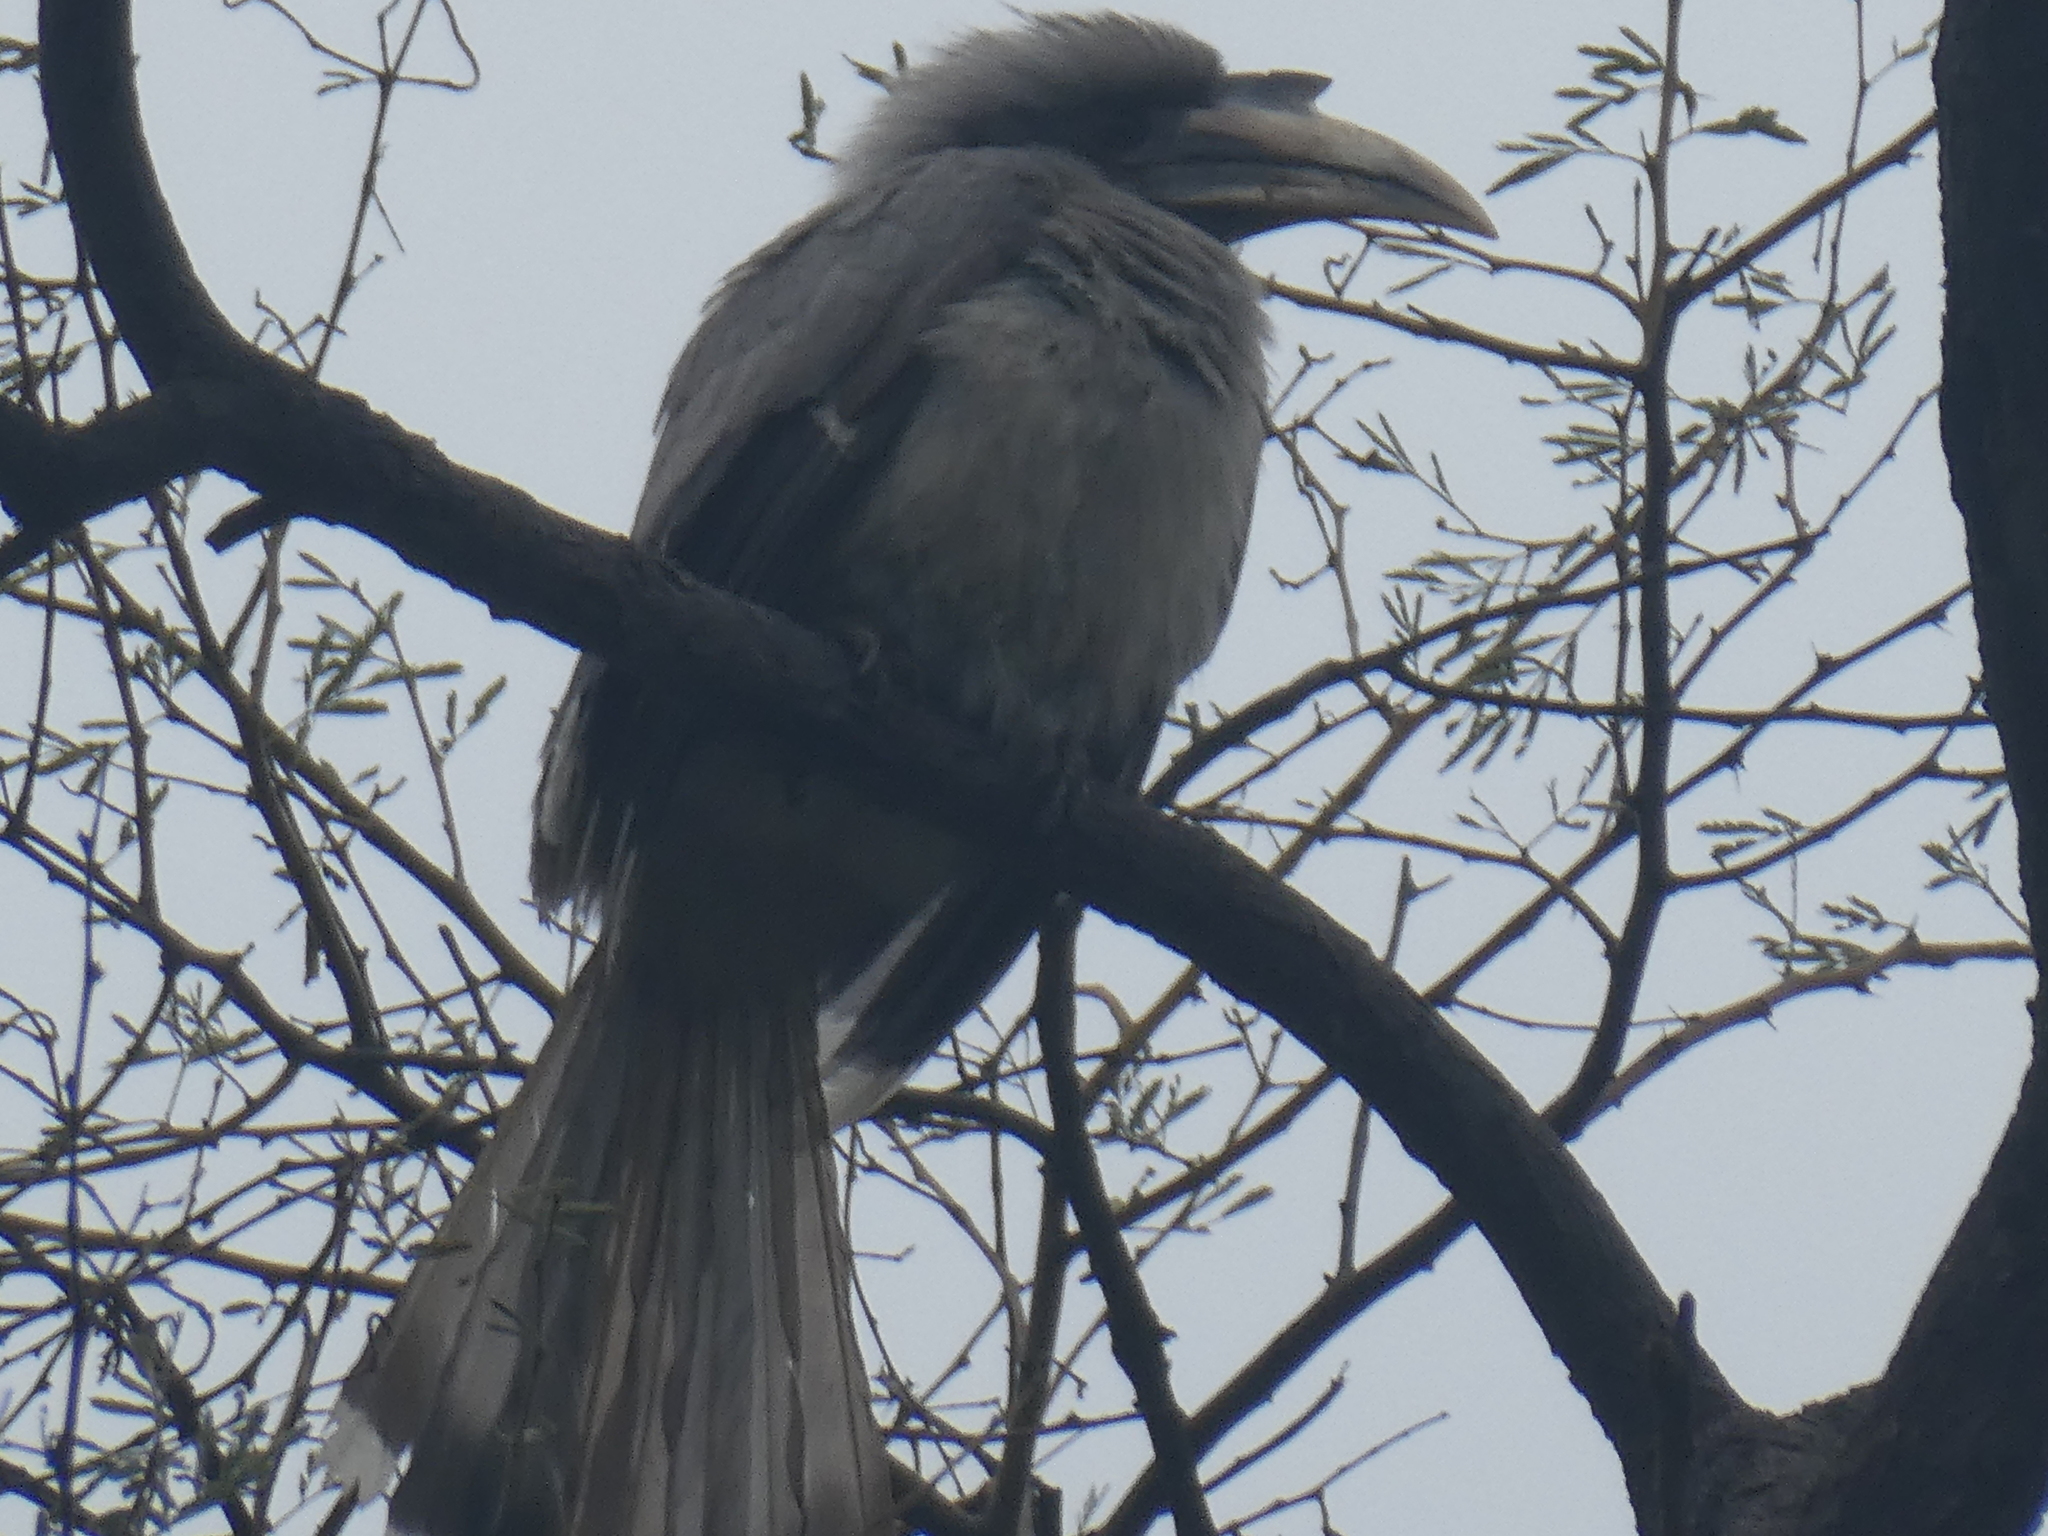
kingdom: Animalia
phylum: Chordata
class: Aves
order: Bucerotiformes
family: Bucerotidae
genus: Ocyceros
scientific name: Ocyceros birostris
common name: Indian grey hornbill
